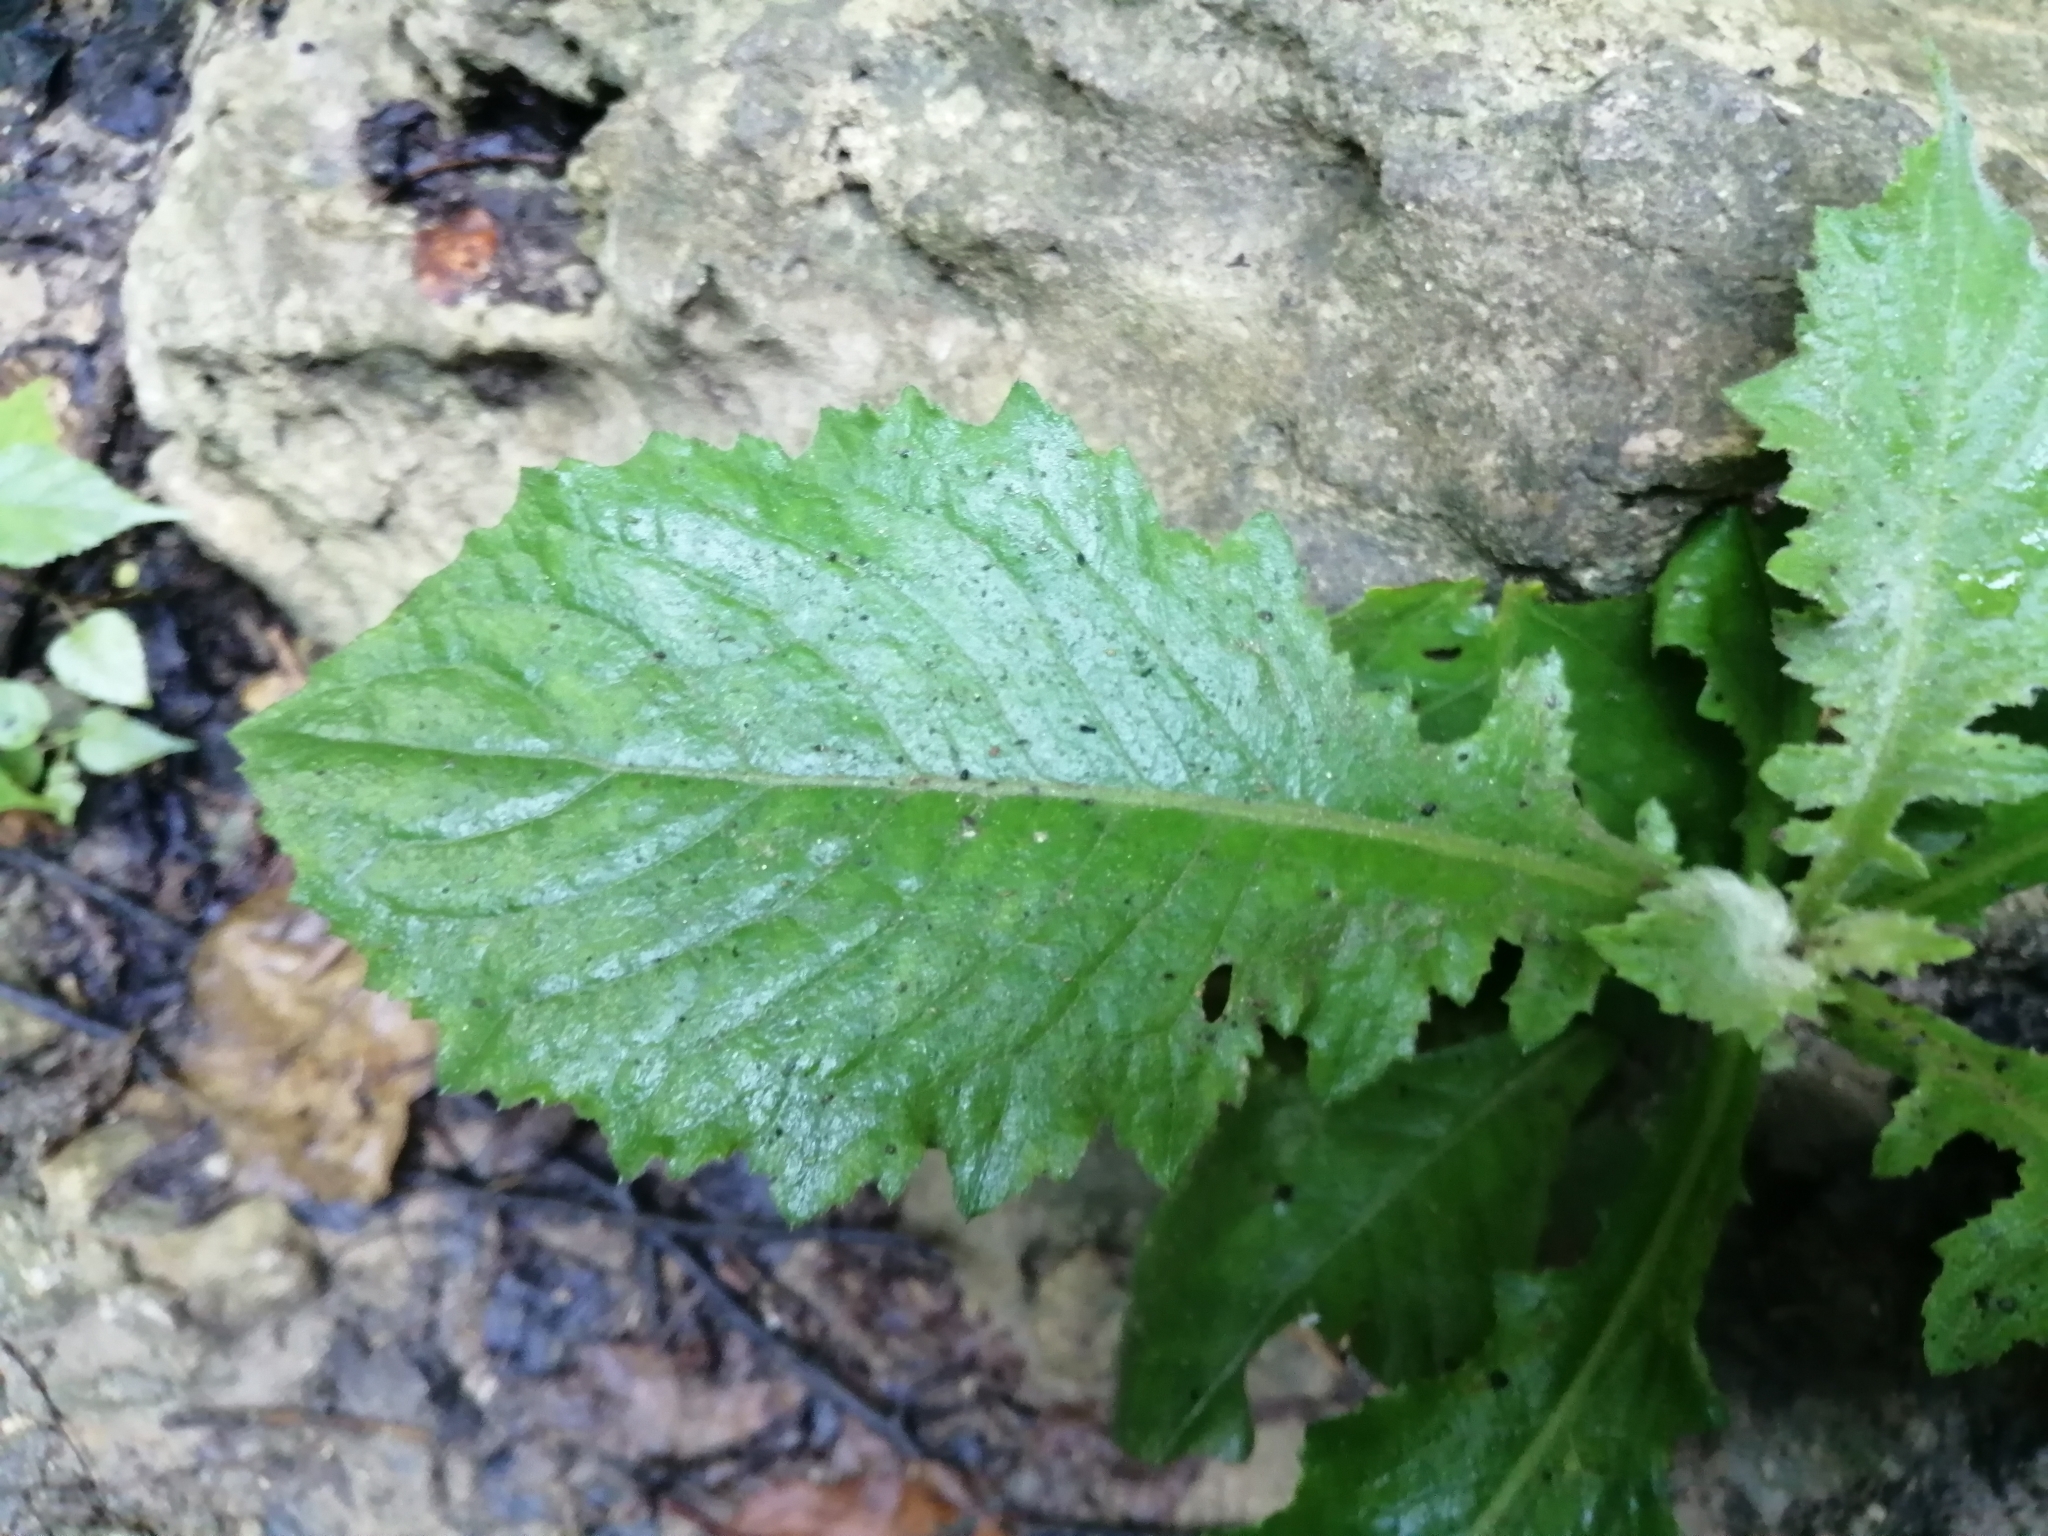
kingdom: Plantae
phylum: Tracheophyta
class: Magnoliopsida
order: Asterales
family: Asteraceae
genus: Crassocephalum
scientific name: Crassocephalum crepidioides
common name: Redflower ragleaf
